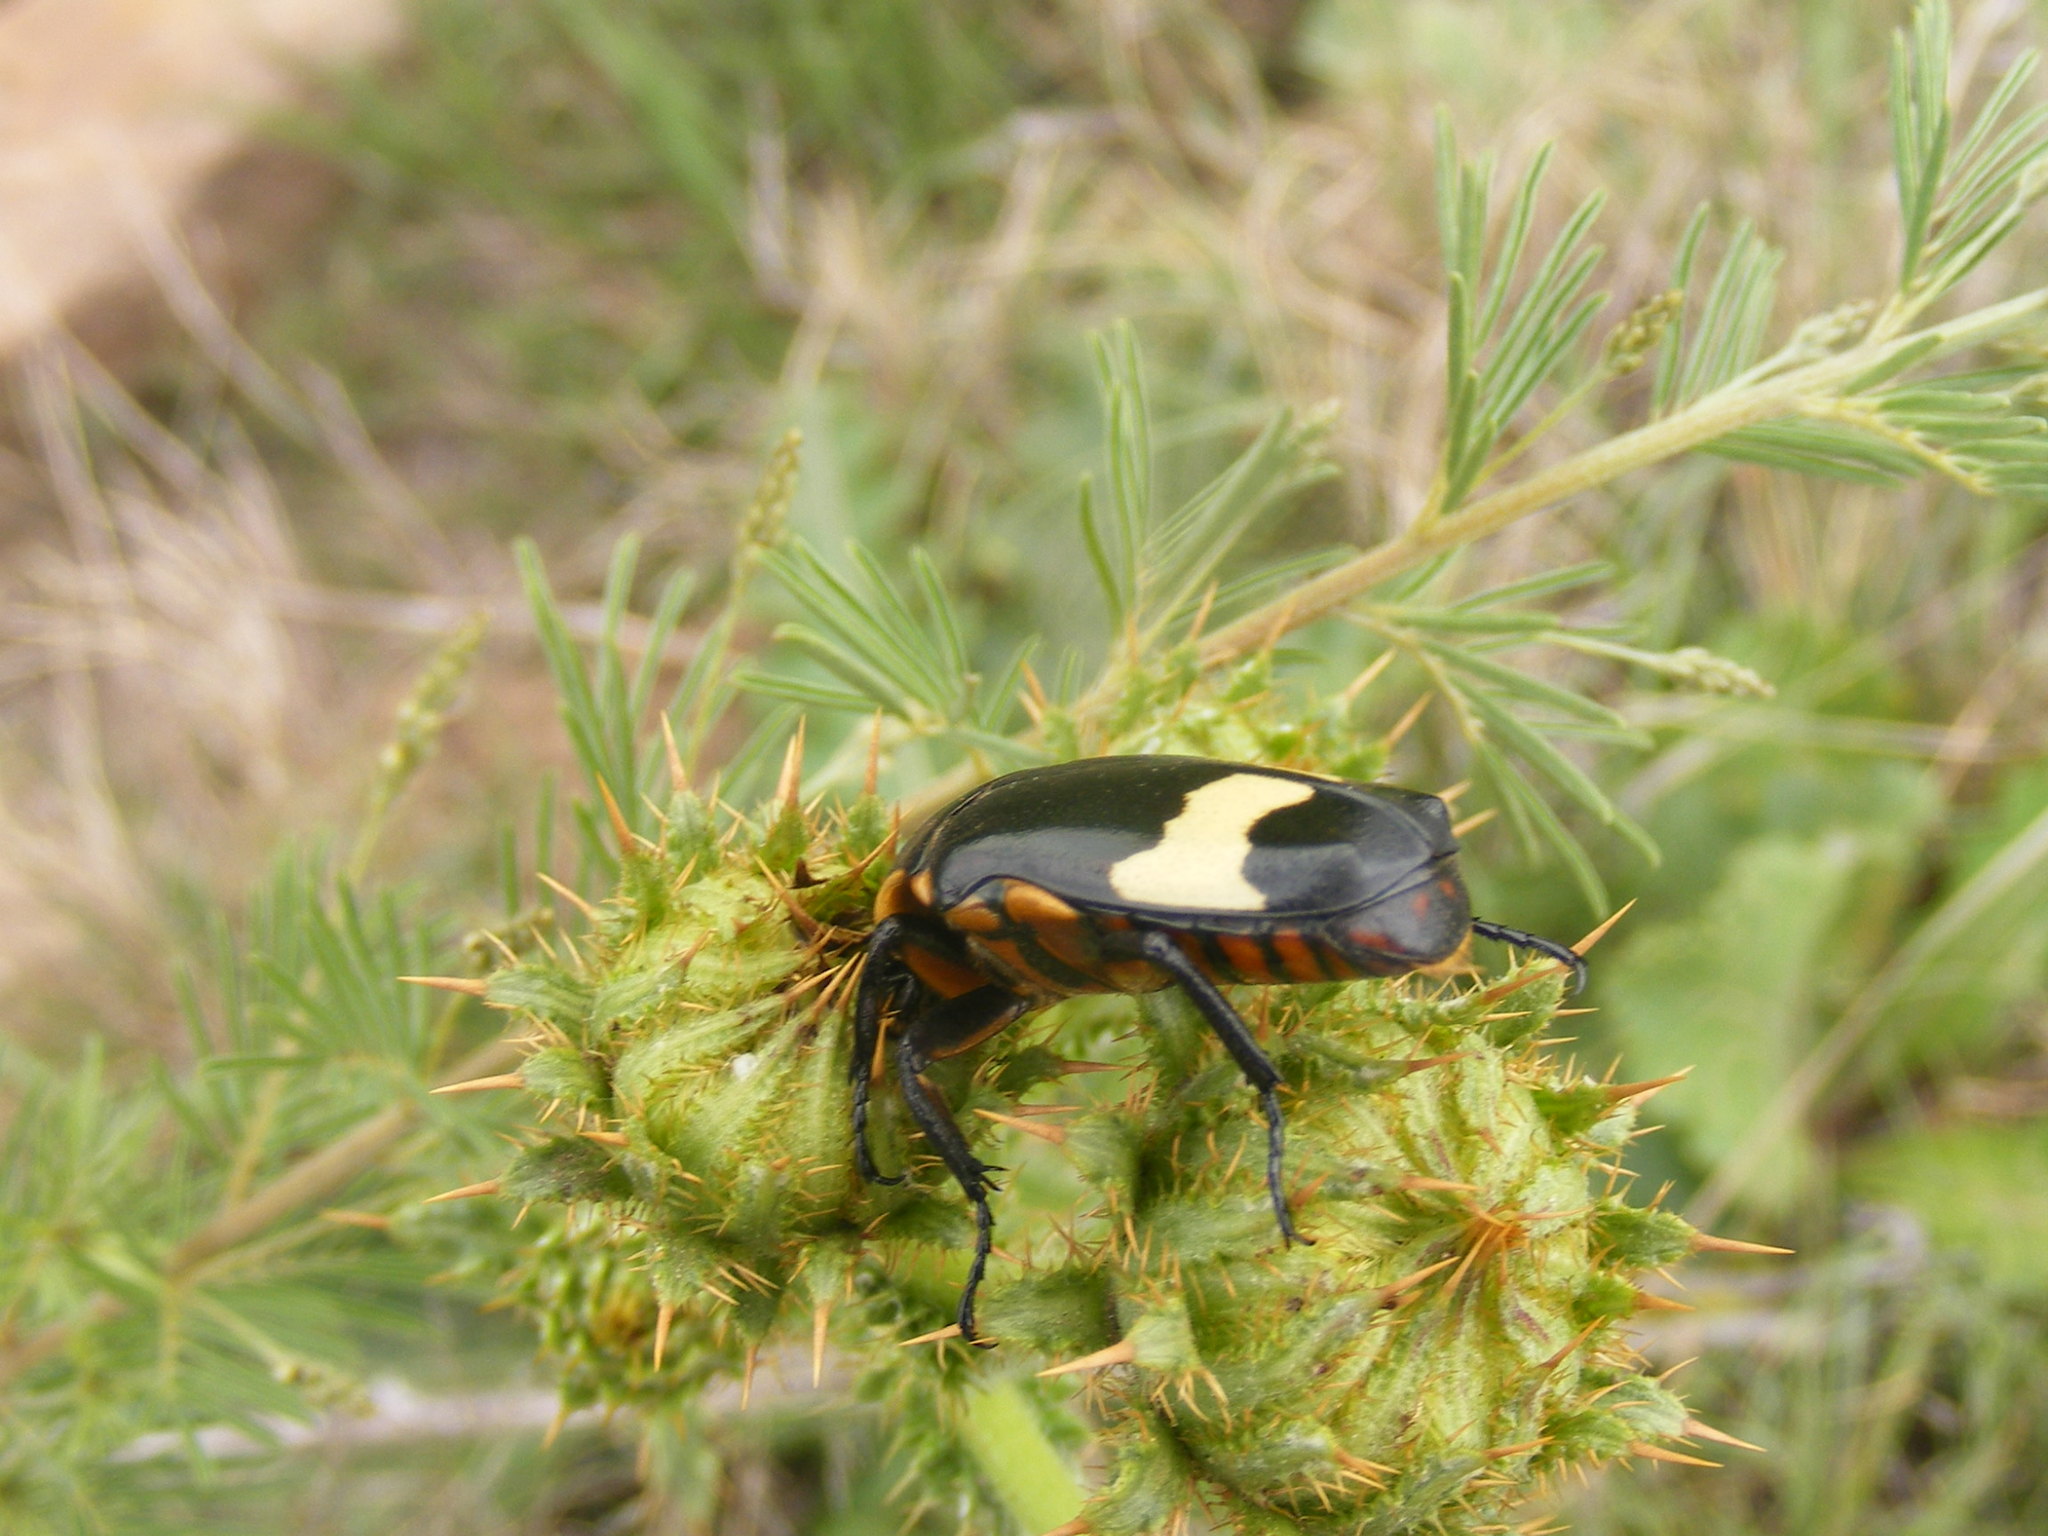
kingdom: Animalia
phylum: Arthropoda
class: Insecta
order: Coleoptera
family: Scarabaeidae
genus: Pedinorrhina
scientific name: Pedinorrhina
